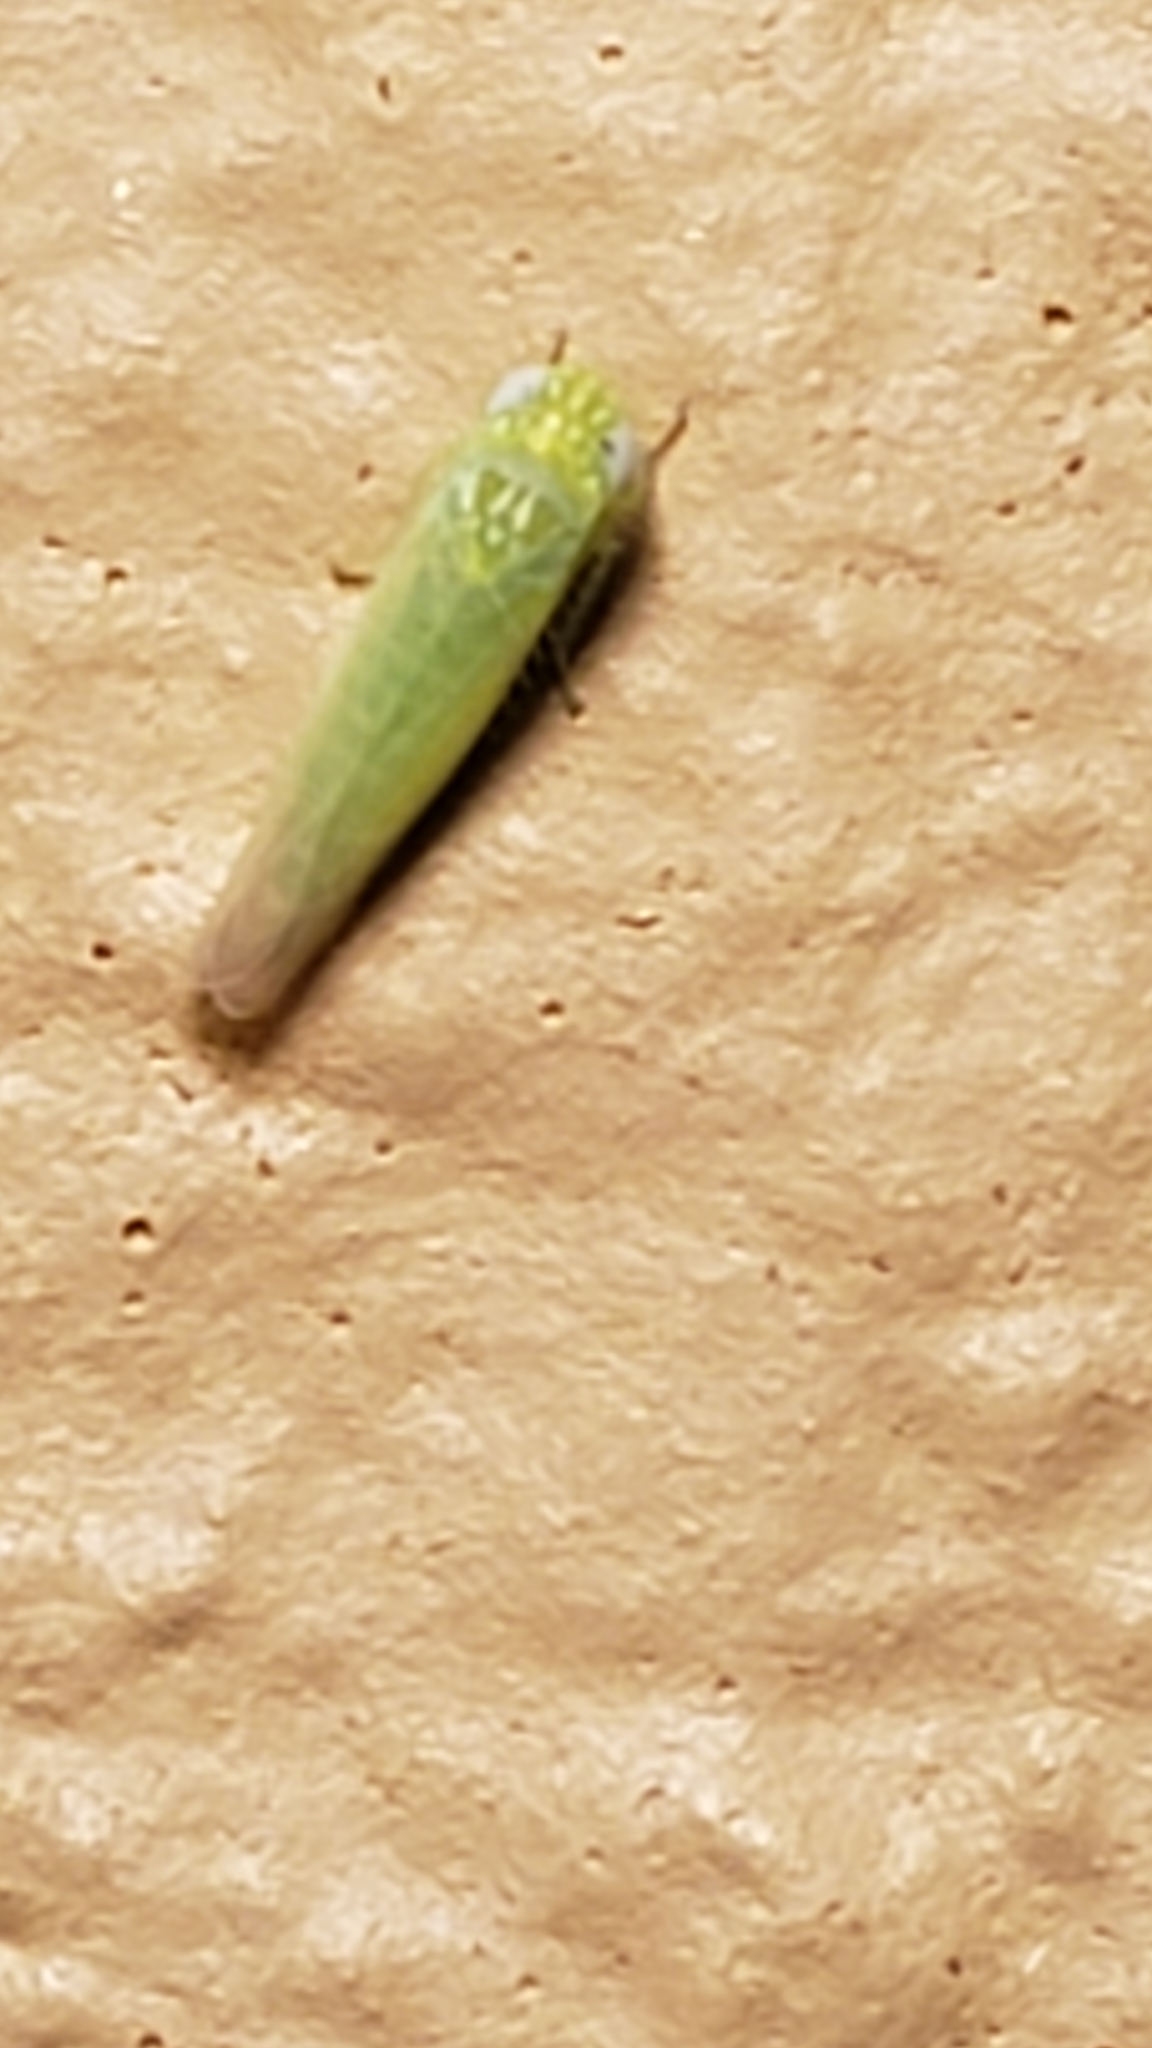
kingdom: Animalia
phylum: Arthropoda
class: Insecta
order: Hemiptera
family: Cicadellidae
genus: Empoasca
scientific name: Empoasca fabae
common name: Potato leafhopper
